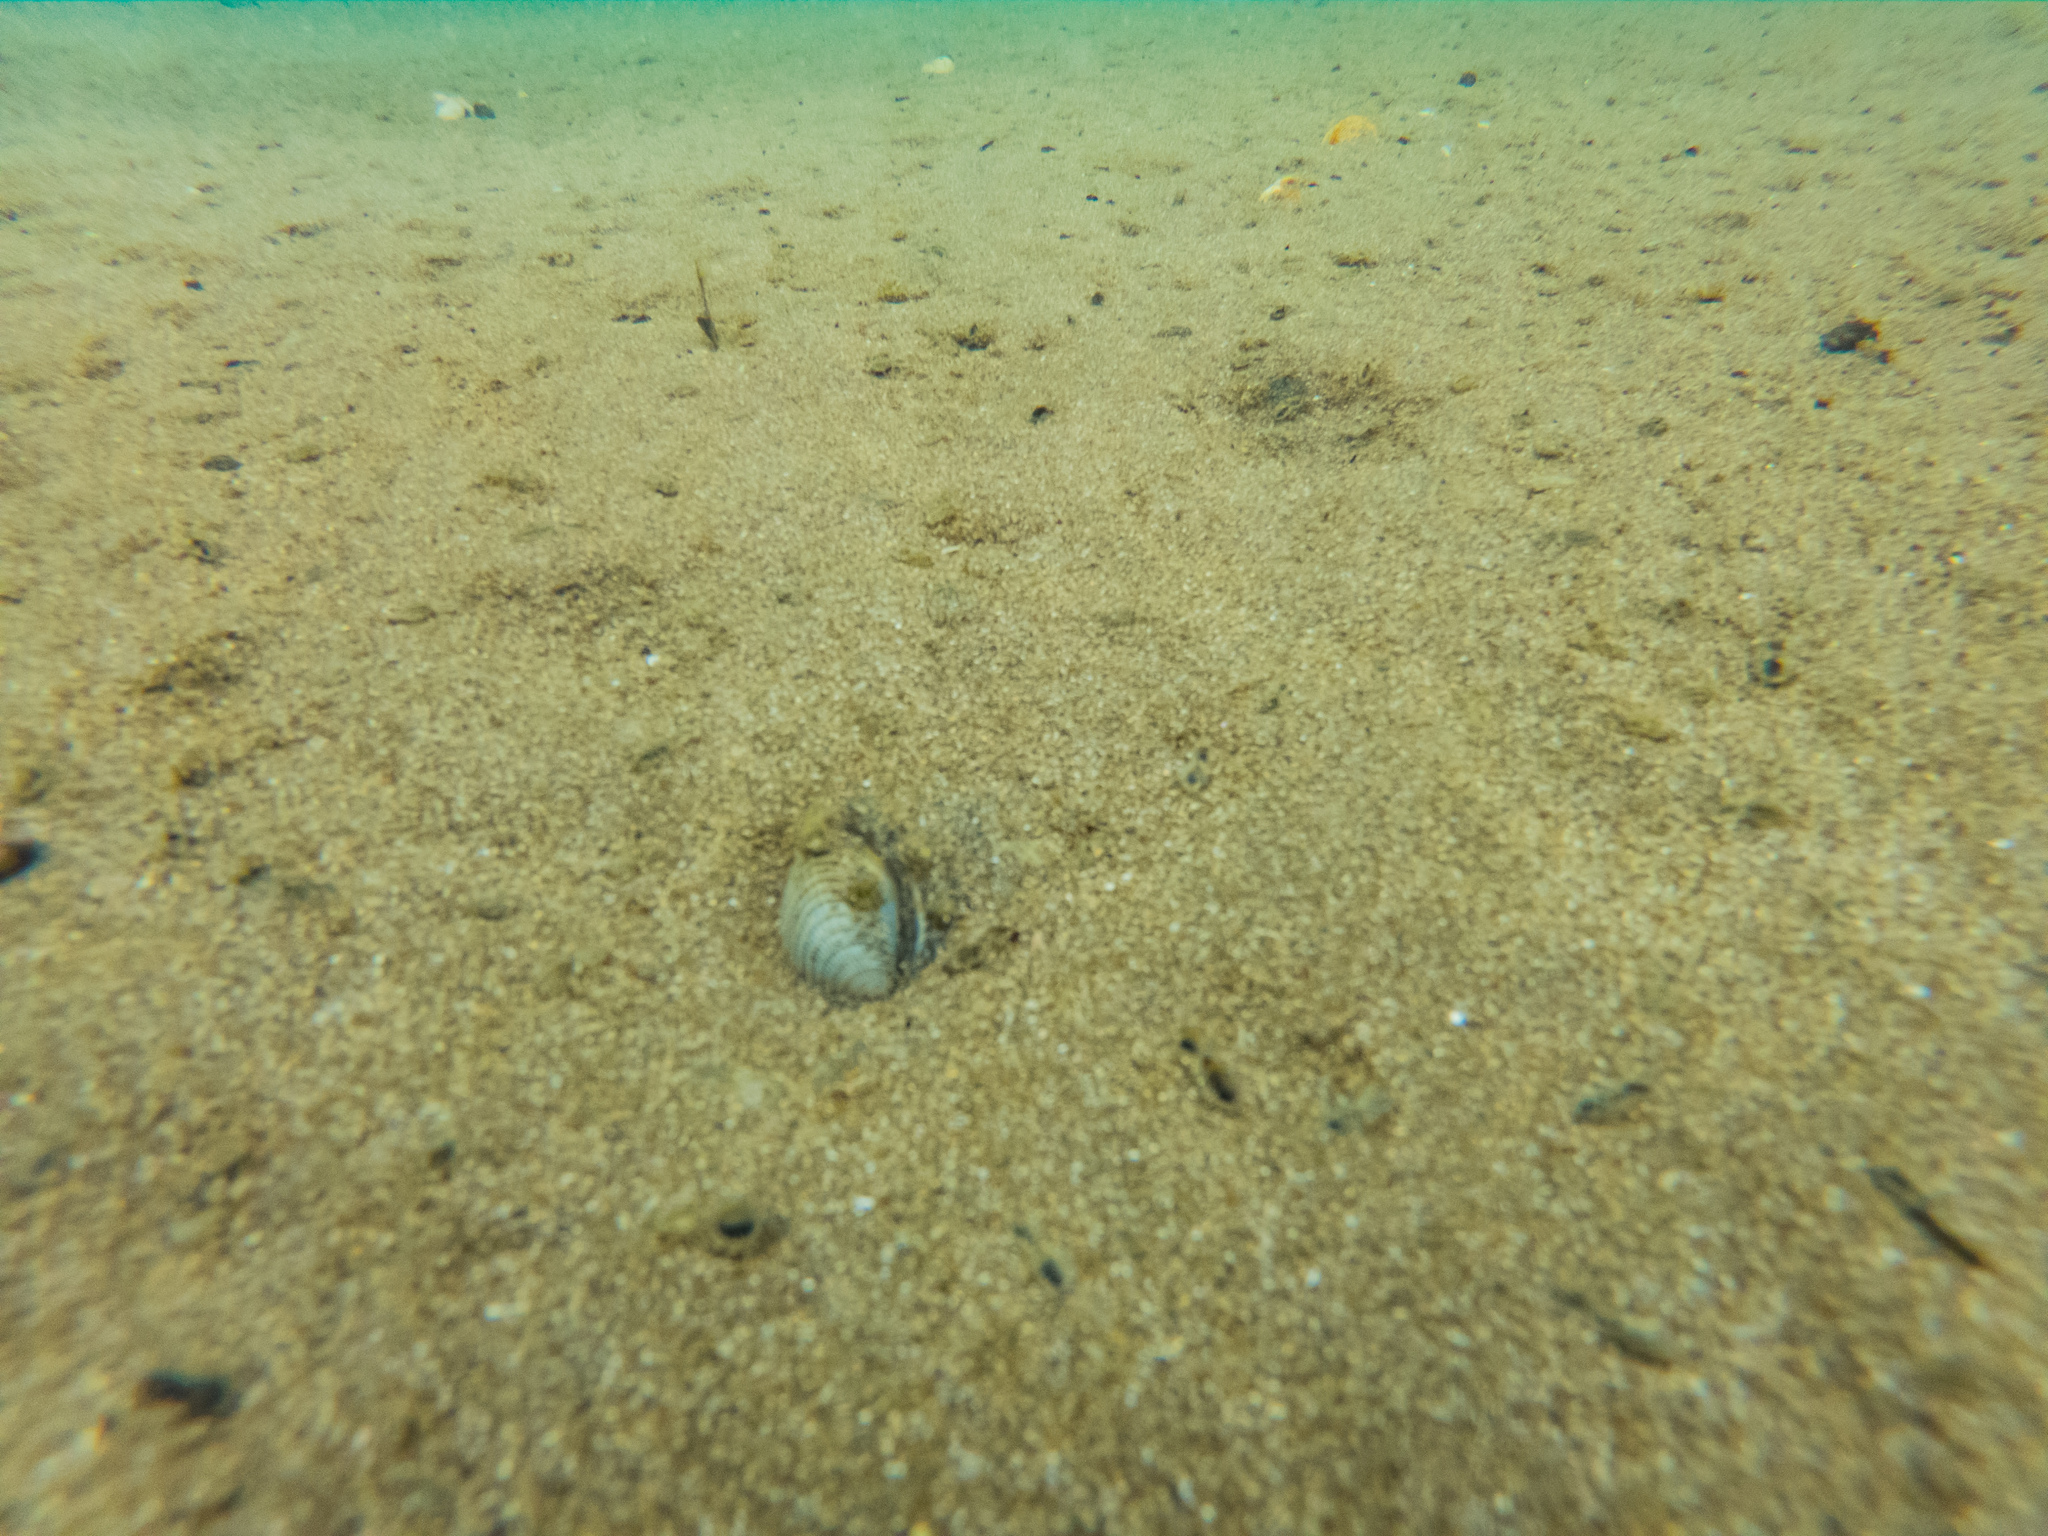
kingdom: Animalia
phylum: Mollusca
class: Bivalvia
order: Venerida
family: Veneridae
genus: Austrovenus
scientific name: Austrovenus stutchburyi
